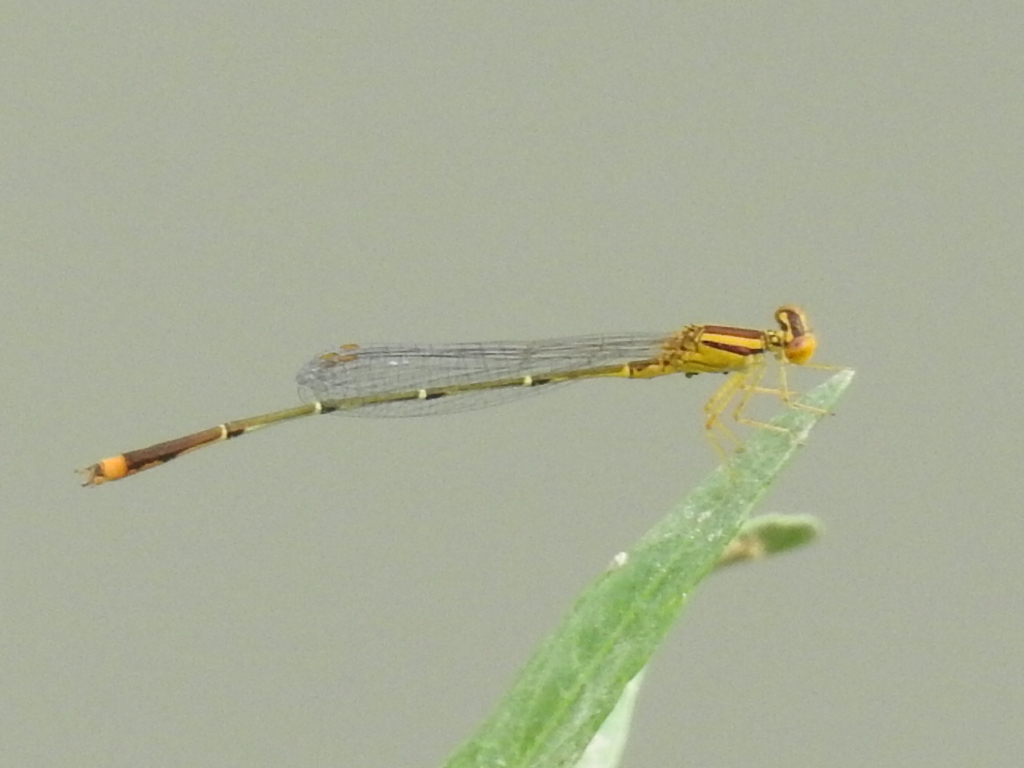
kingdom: Animalia
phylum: Arthropoda
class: Insecta
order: Odonata
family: Coenagrionidae
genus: Enallagma
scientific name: Enallagma signatum
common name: Orange bluet
